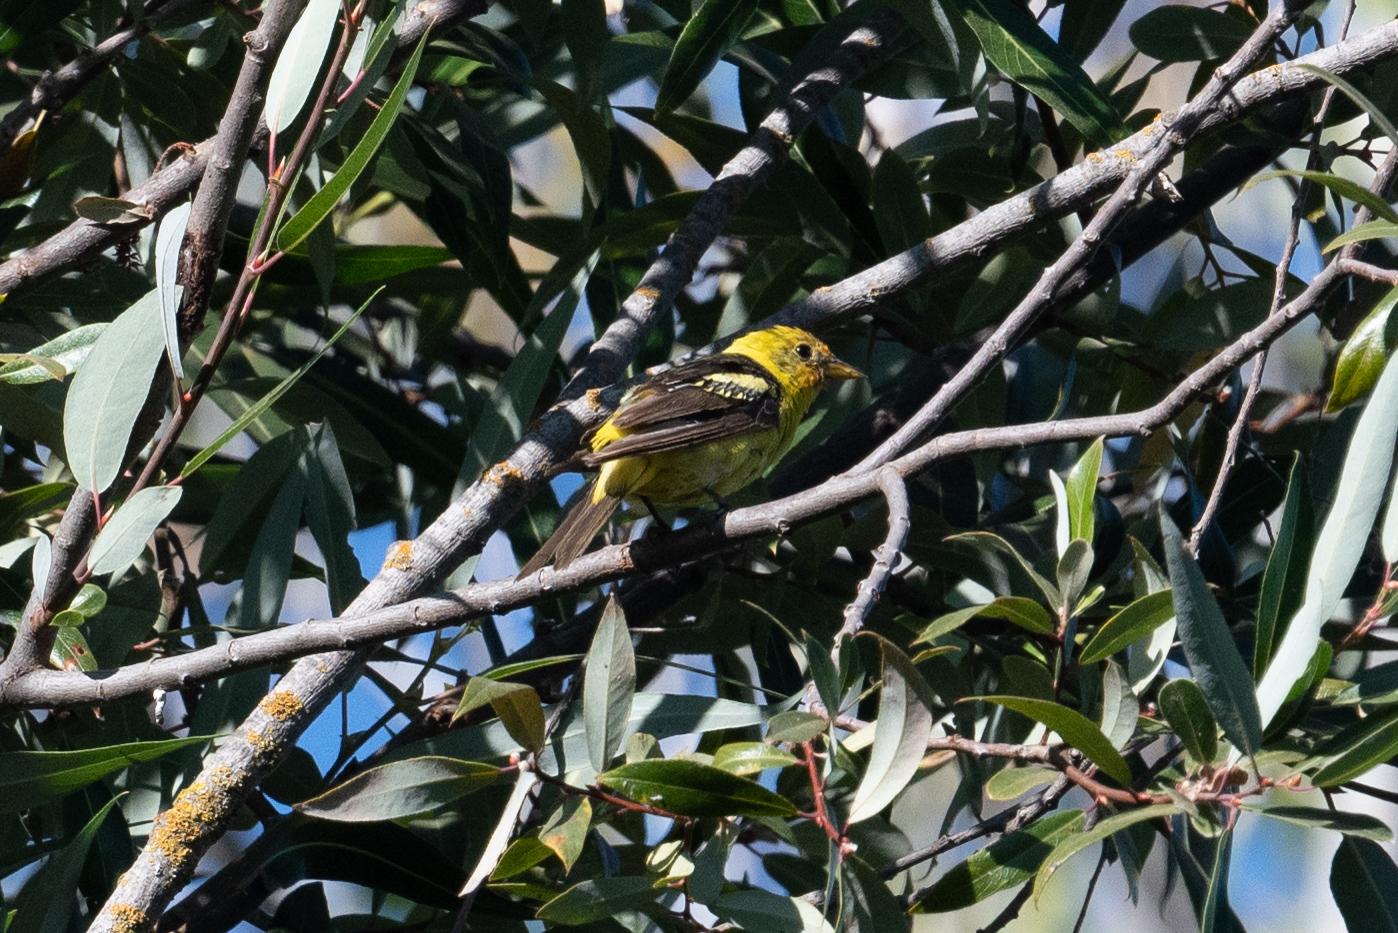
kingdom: Animalia
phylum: Chordata
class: Aves
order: Passeriformes
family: Cardinalidae
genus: Piranga
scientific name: Piranga ludoviciana
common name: Western tanager
